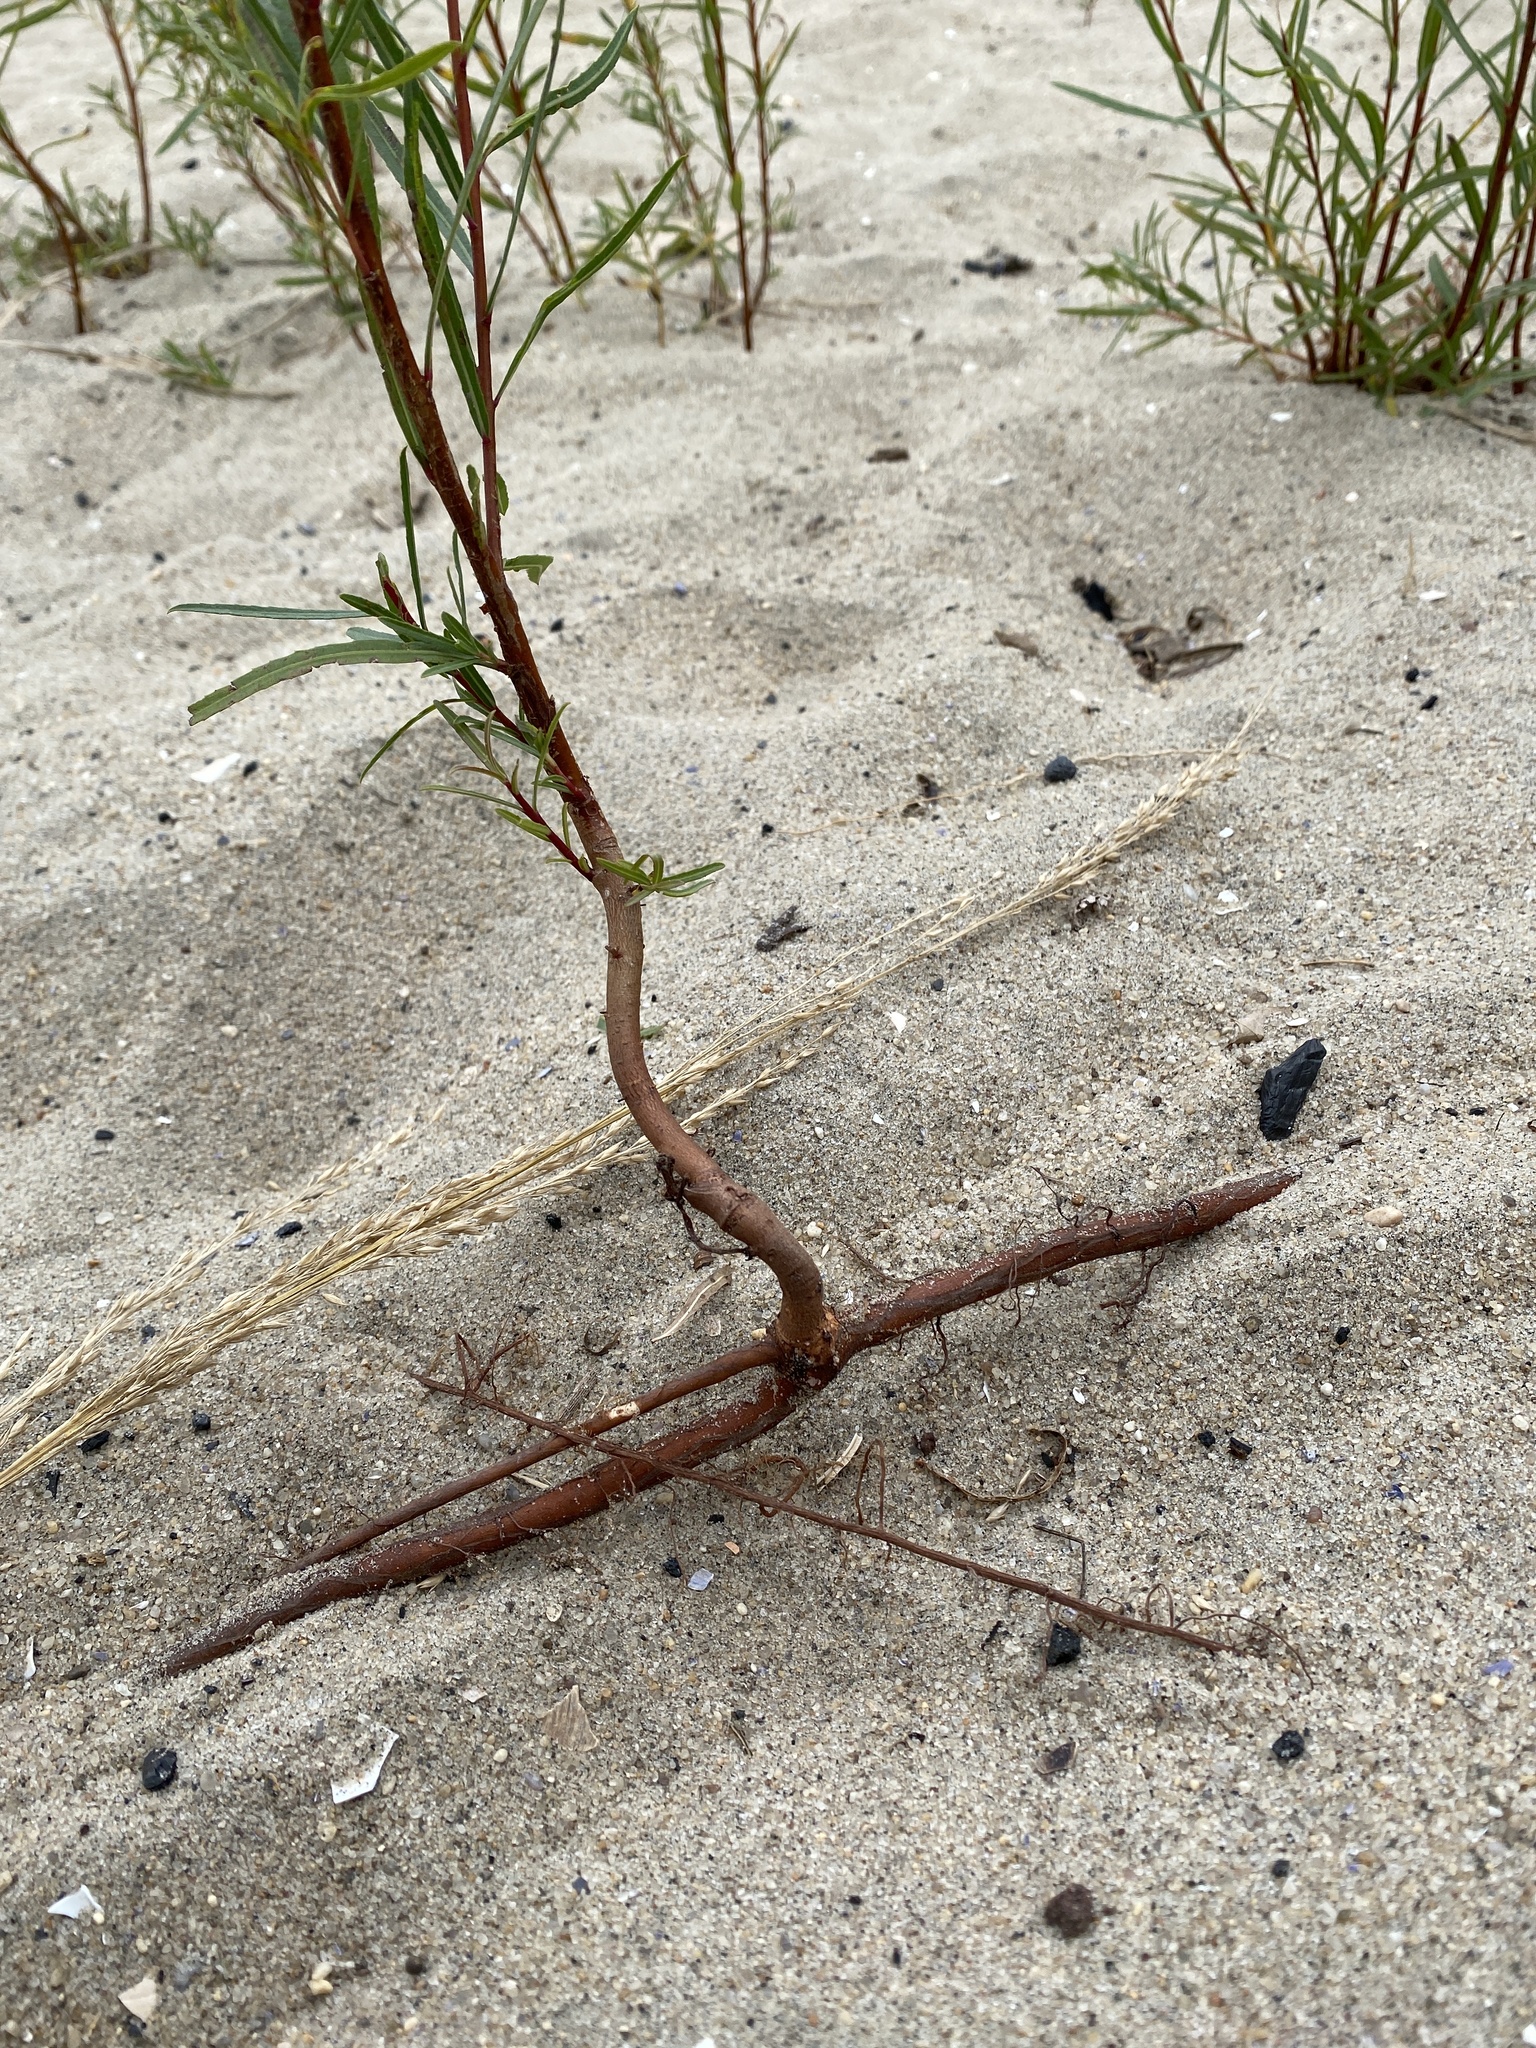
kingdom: Plantae
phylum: Tracheophyta
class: Magnoliopsida
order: Malpighiales
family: Salicaceae
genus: Salix
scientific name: Salix interior
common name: Sandbar willow
